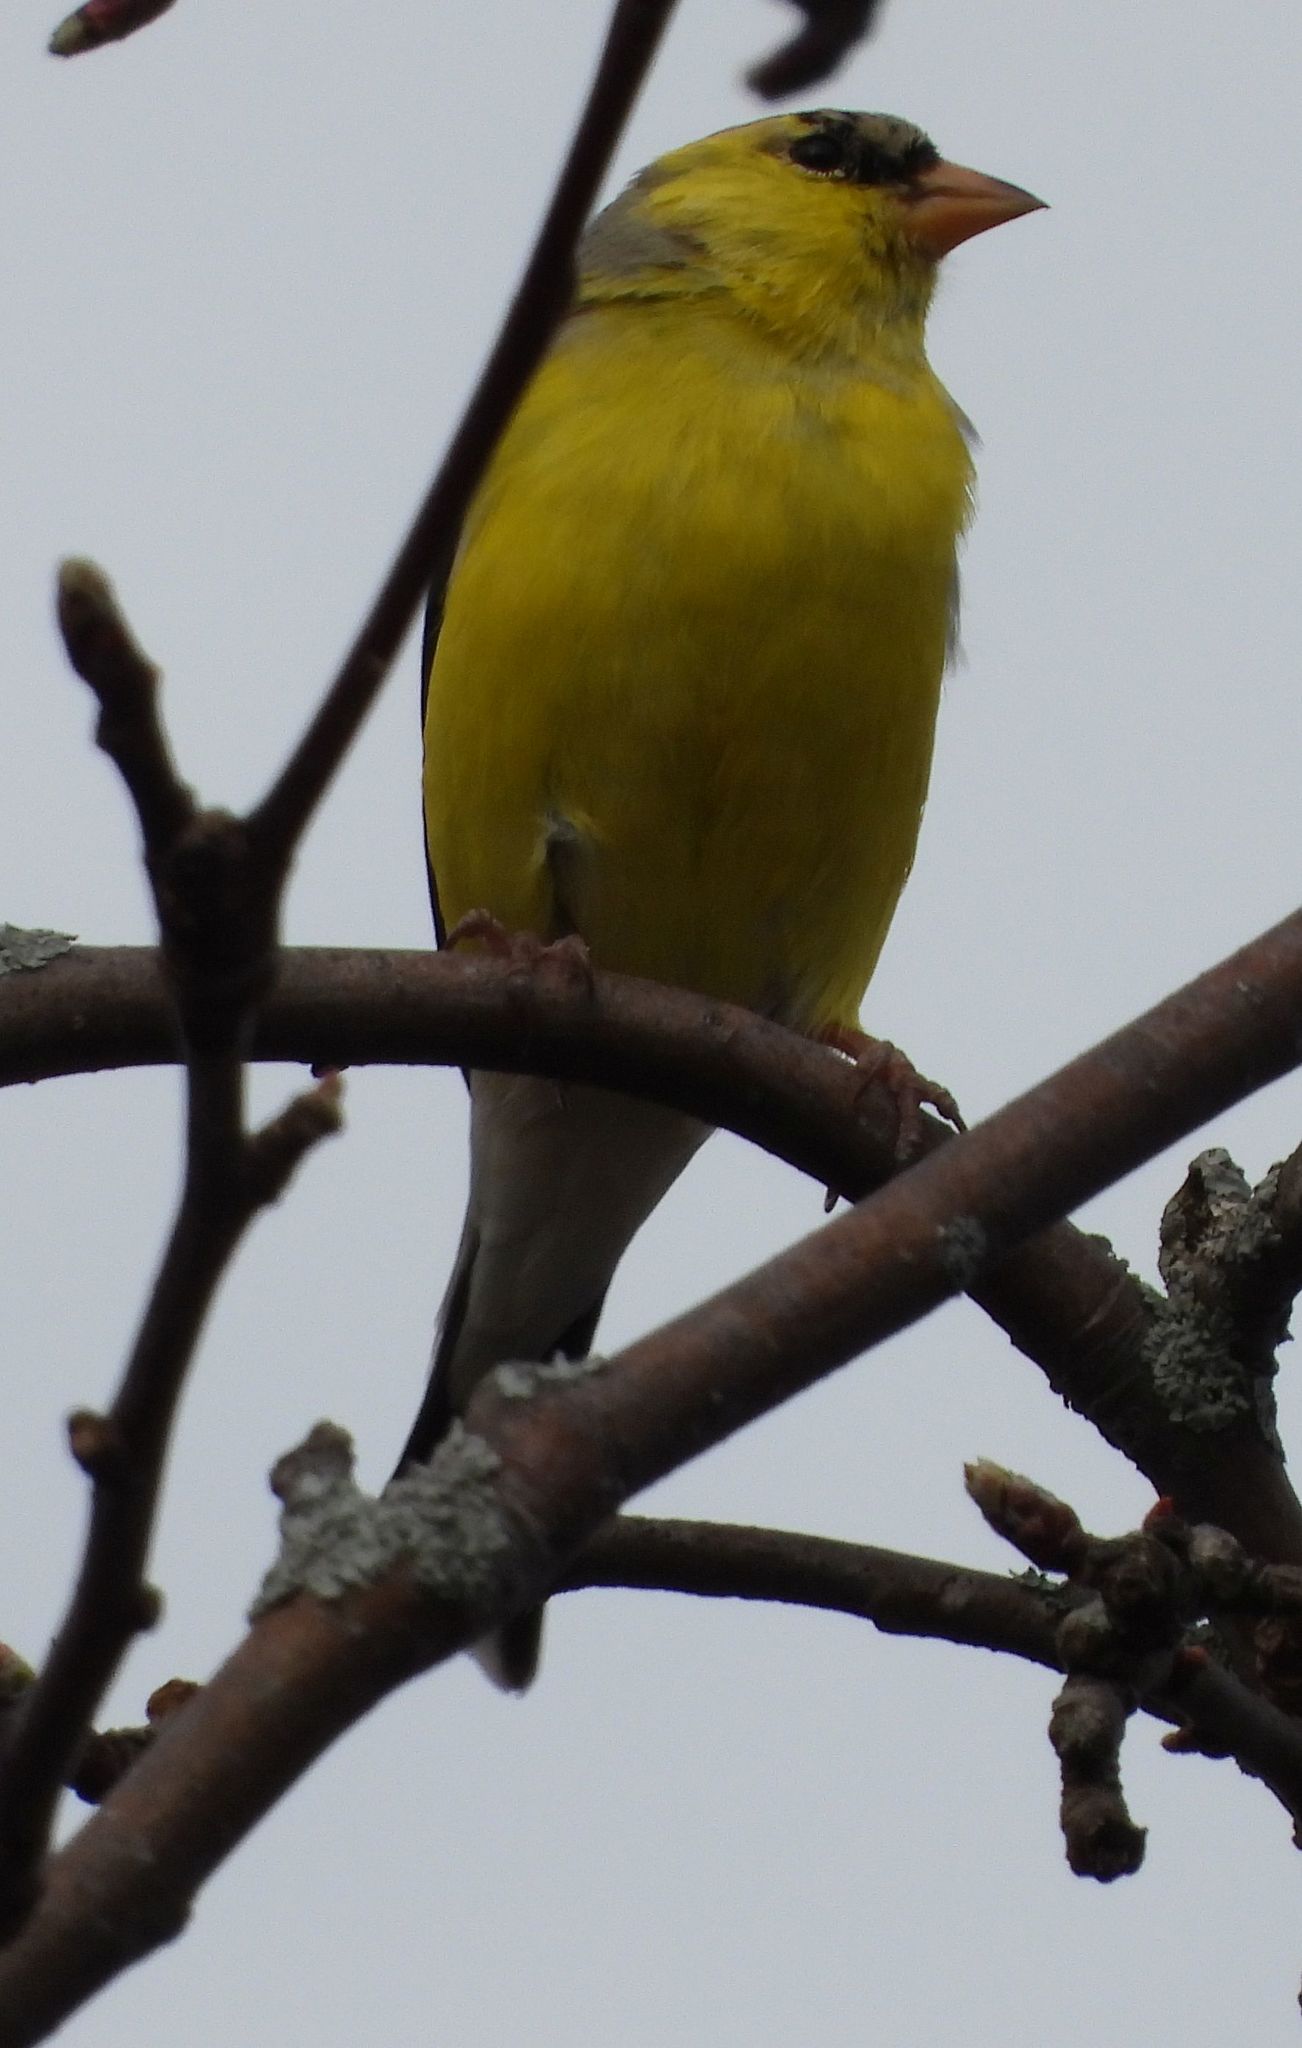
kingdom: Animalia
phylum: Chordata
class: Aves
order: Passeriformes
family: Fringillidae
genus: Spinus
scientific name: Spinus tristis
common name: American goldfinch
